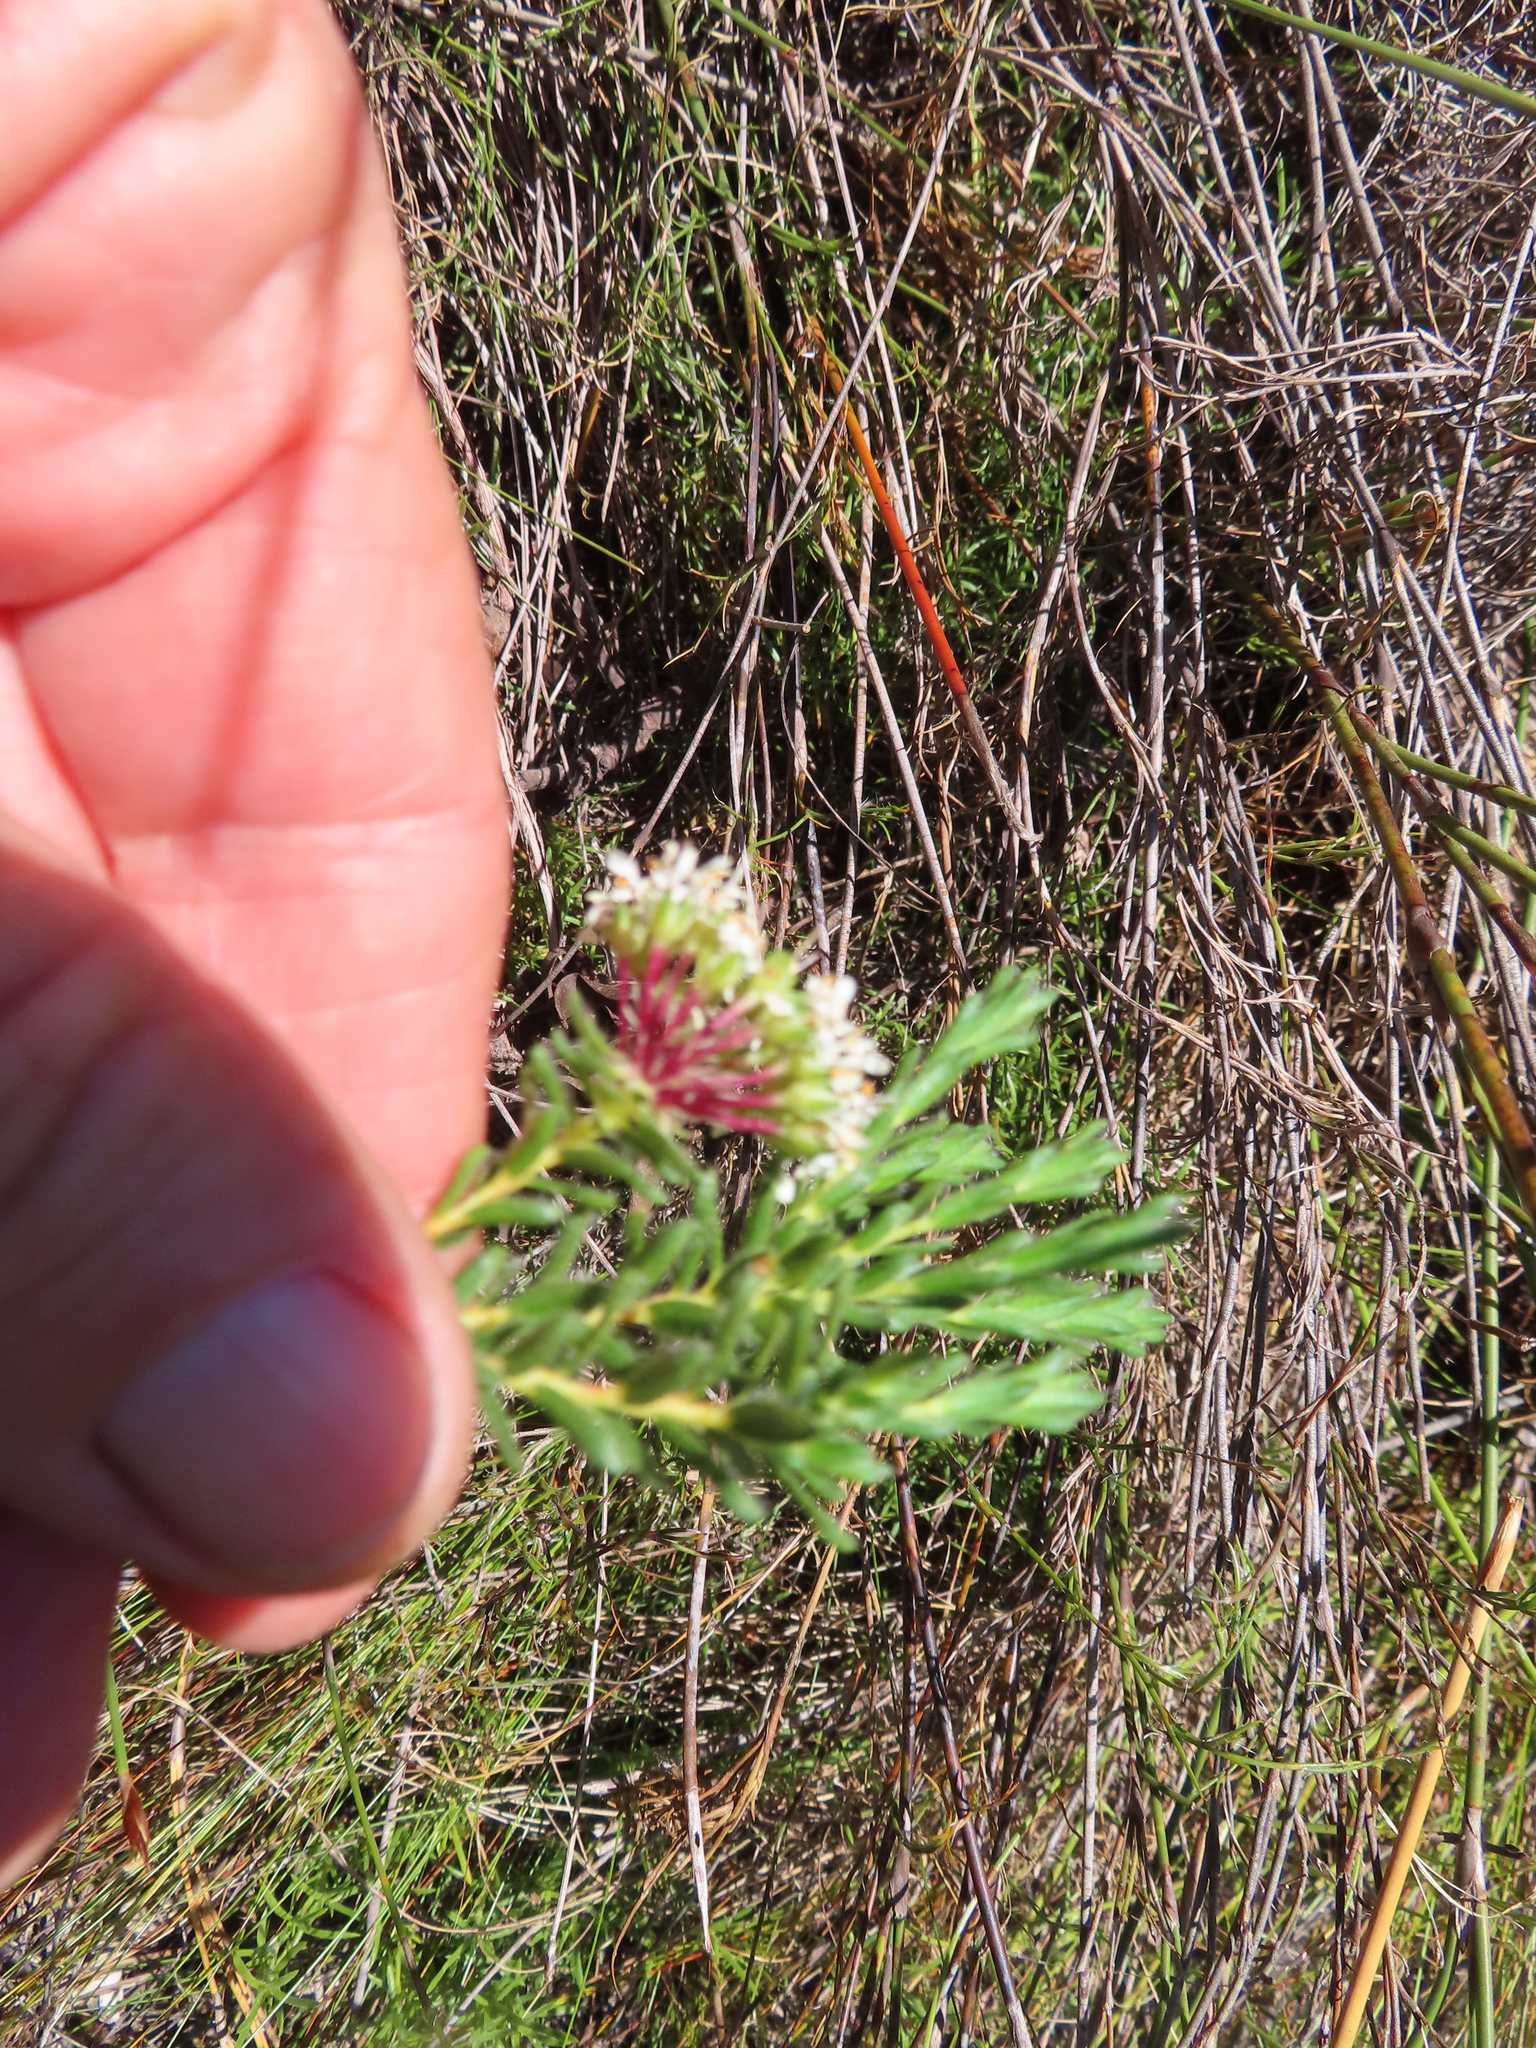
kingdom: Plantae
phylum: Tracheophyta
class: Magnoliopsida
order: Sapindales
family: Rutaceae
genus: Agathosma
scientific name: Agathosma bifida
